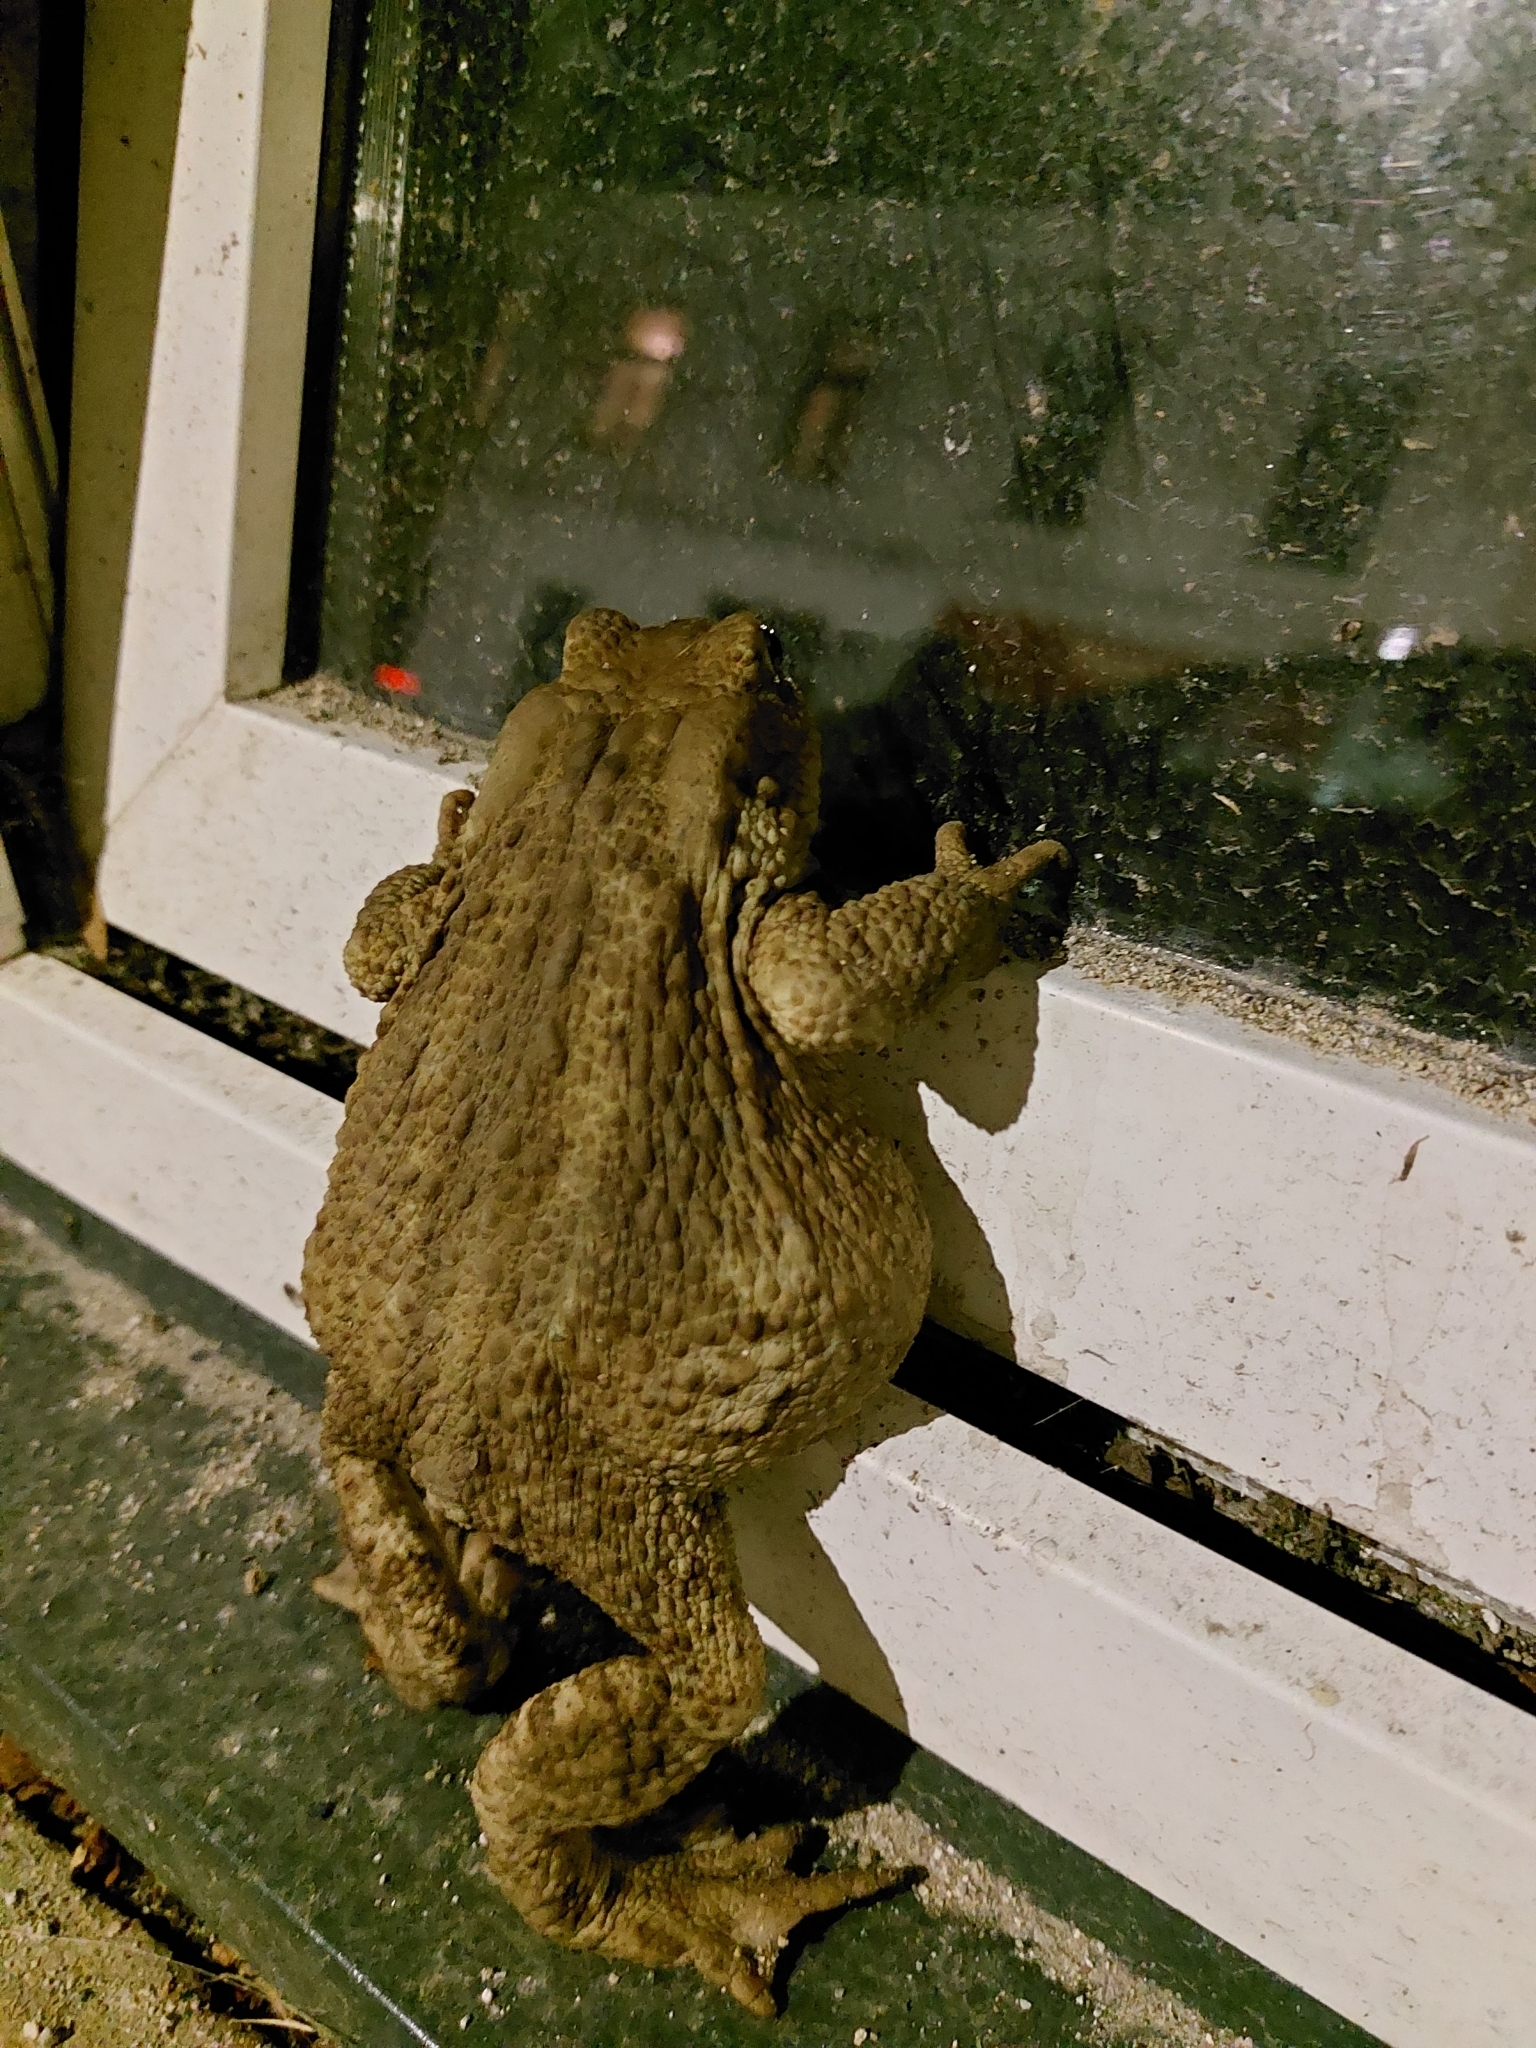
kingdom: Animalia
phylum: Chordata
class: Amphibia
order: Anura
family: Bufonidae
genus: Bufo
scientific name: Bufo bufo
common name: Common toad
